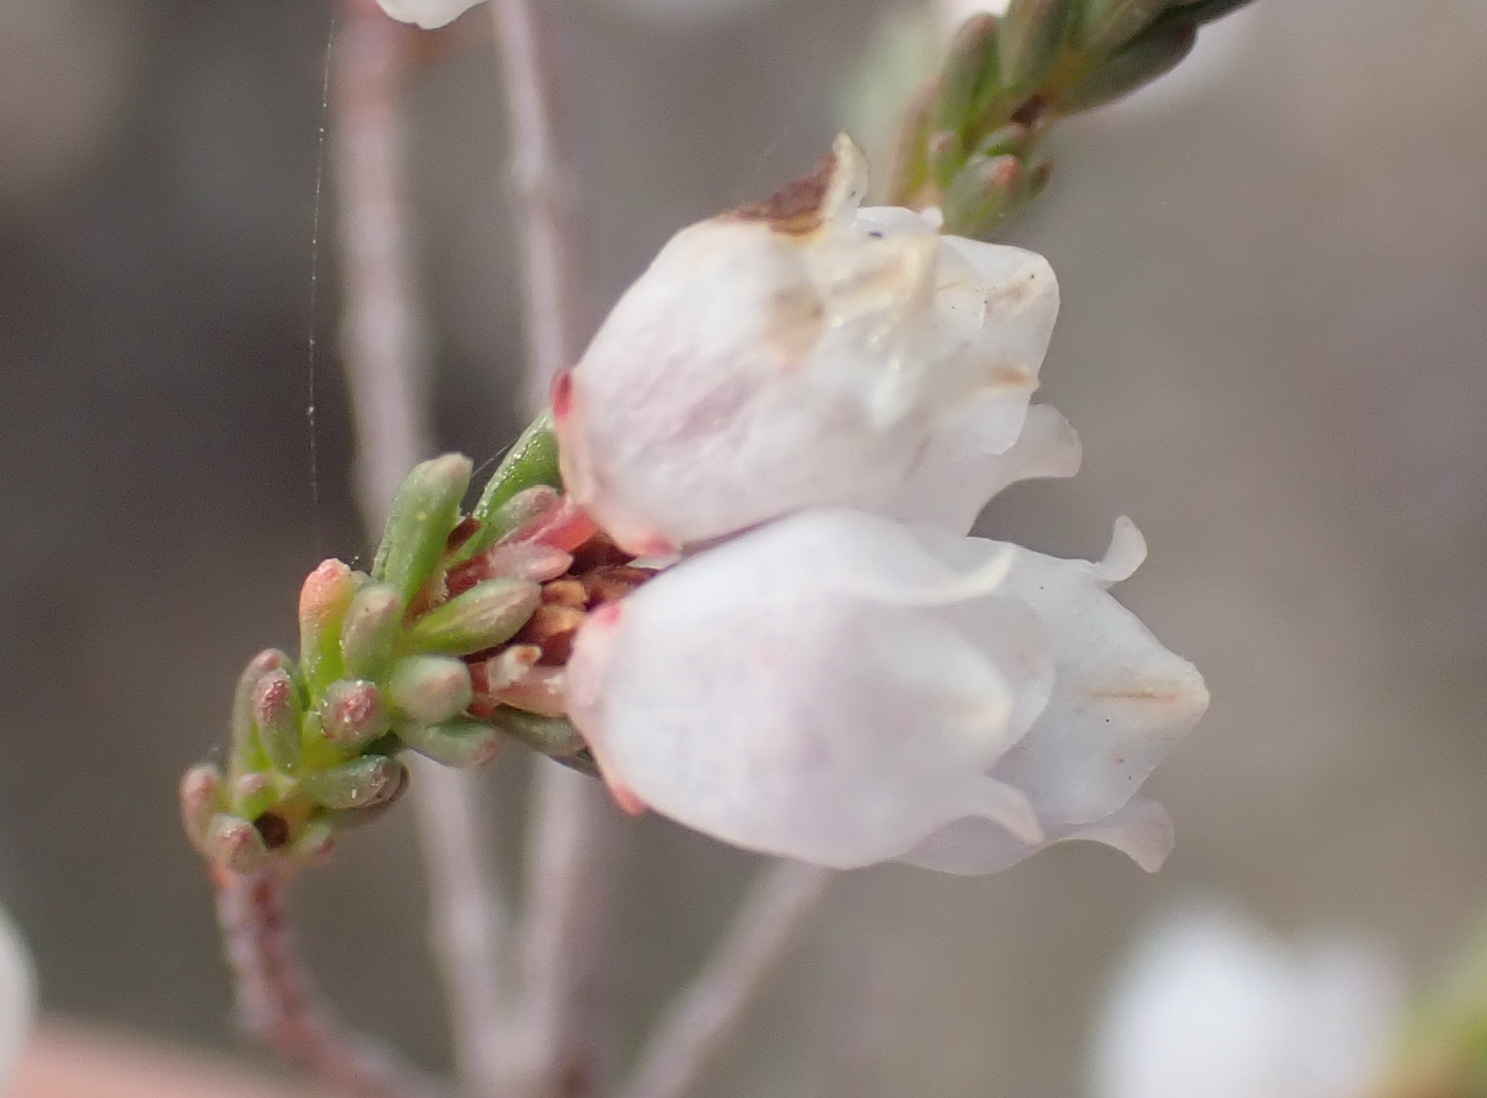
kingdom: Plantae
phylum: Tracheophyta
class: Magnoliopsida
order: Ericales
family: Ericaceae
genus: Erica
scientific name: Erica quadrangularis
